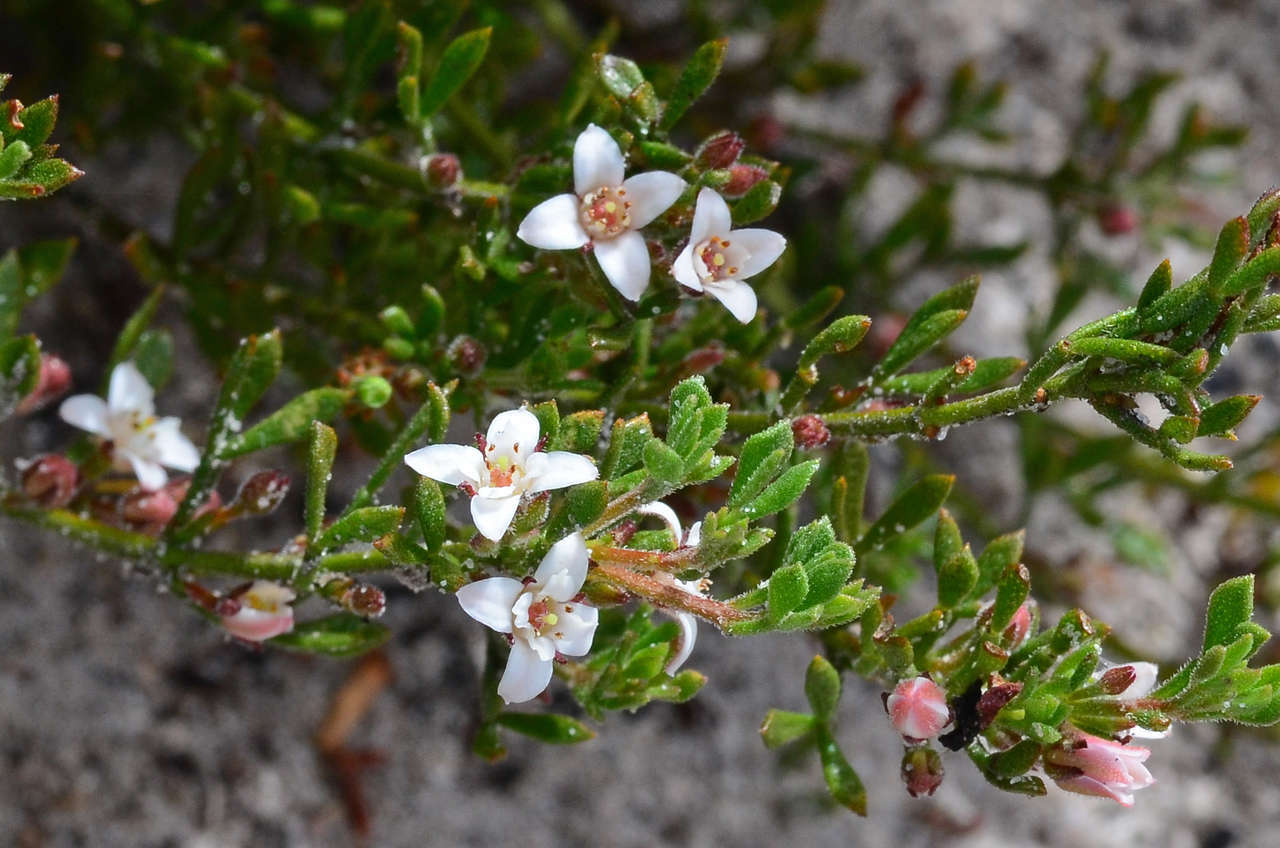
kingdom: Plantae
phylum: Tracheophyta
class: Magnoliopsida
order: Sapindales
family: Rutaceae
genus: Cyanothamnus
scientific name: Cyanothamnus nanus
